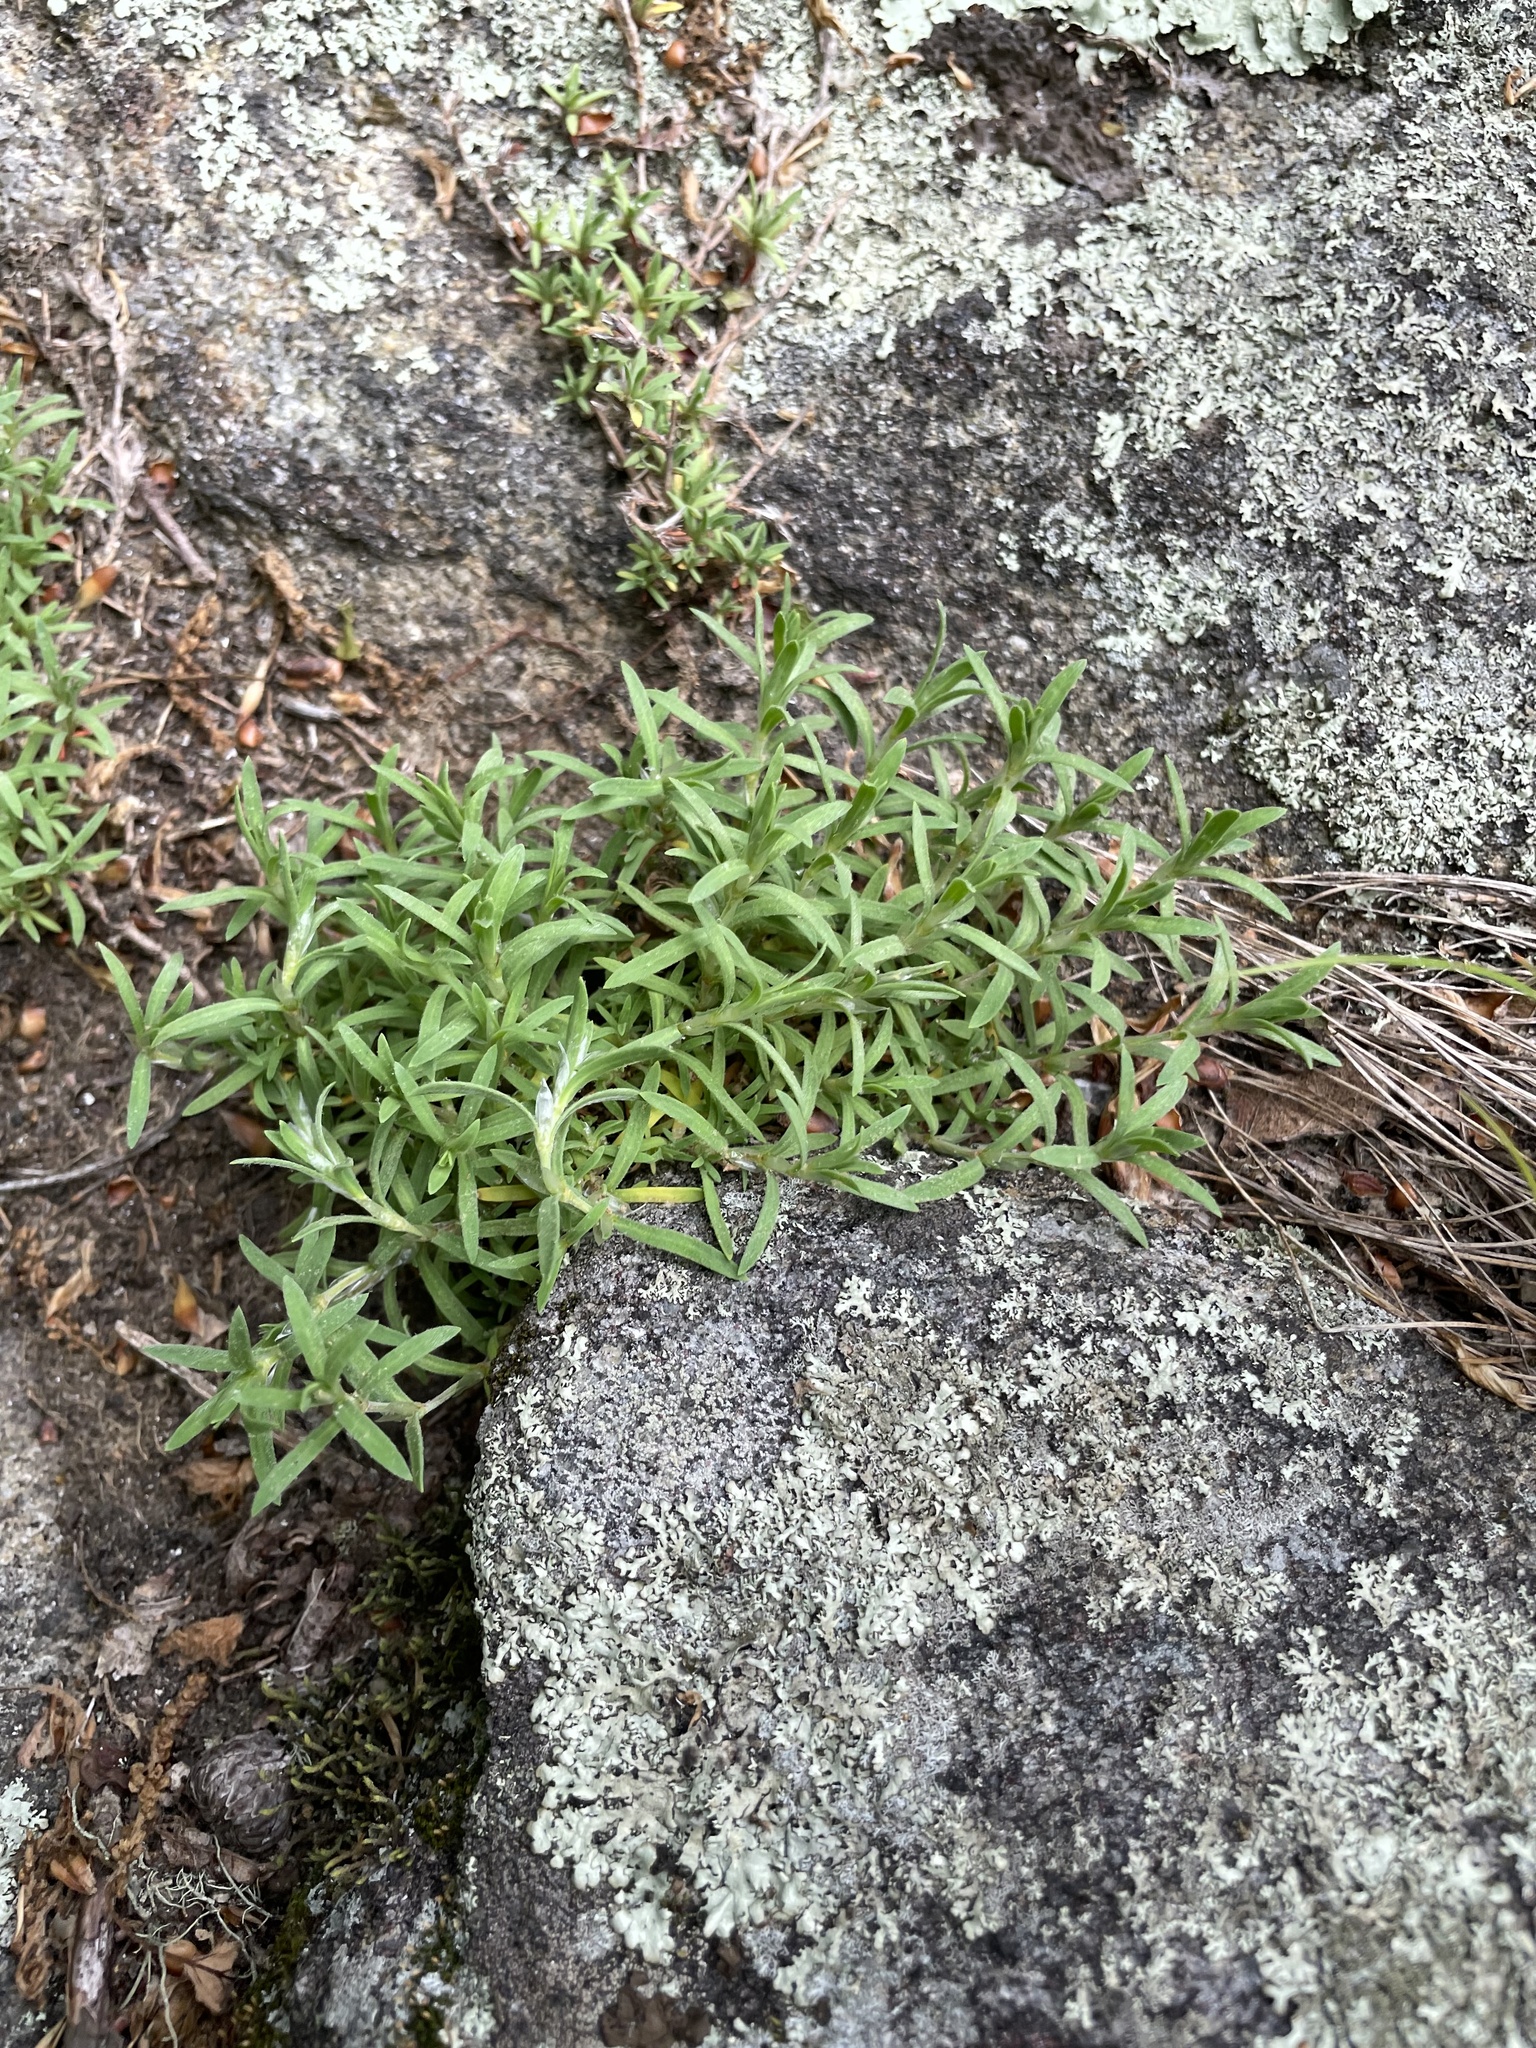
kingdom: Plantae
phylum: Tracheophyta
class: Magnoliopsida
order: Caryophyllales
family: Caryophyllaceae
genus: Paronychia
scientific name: Paronychia argyrocoma
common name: Silverling
